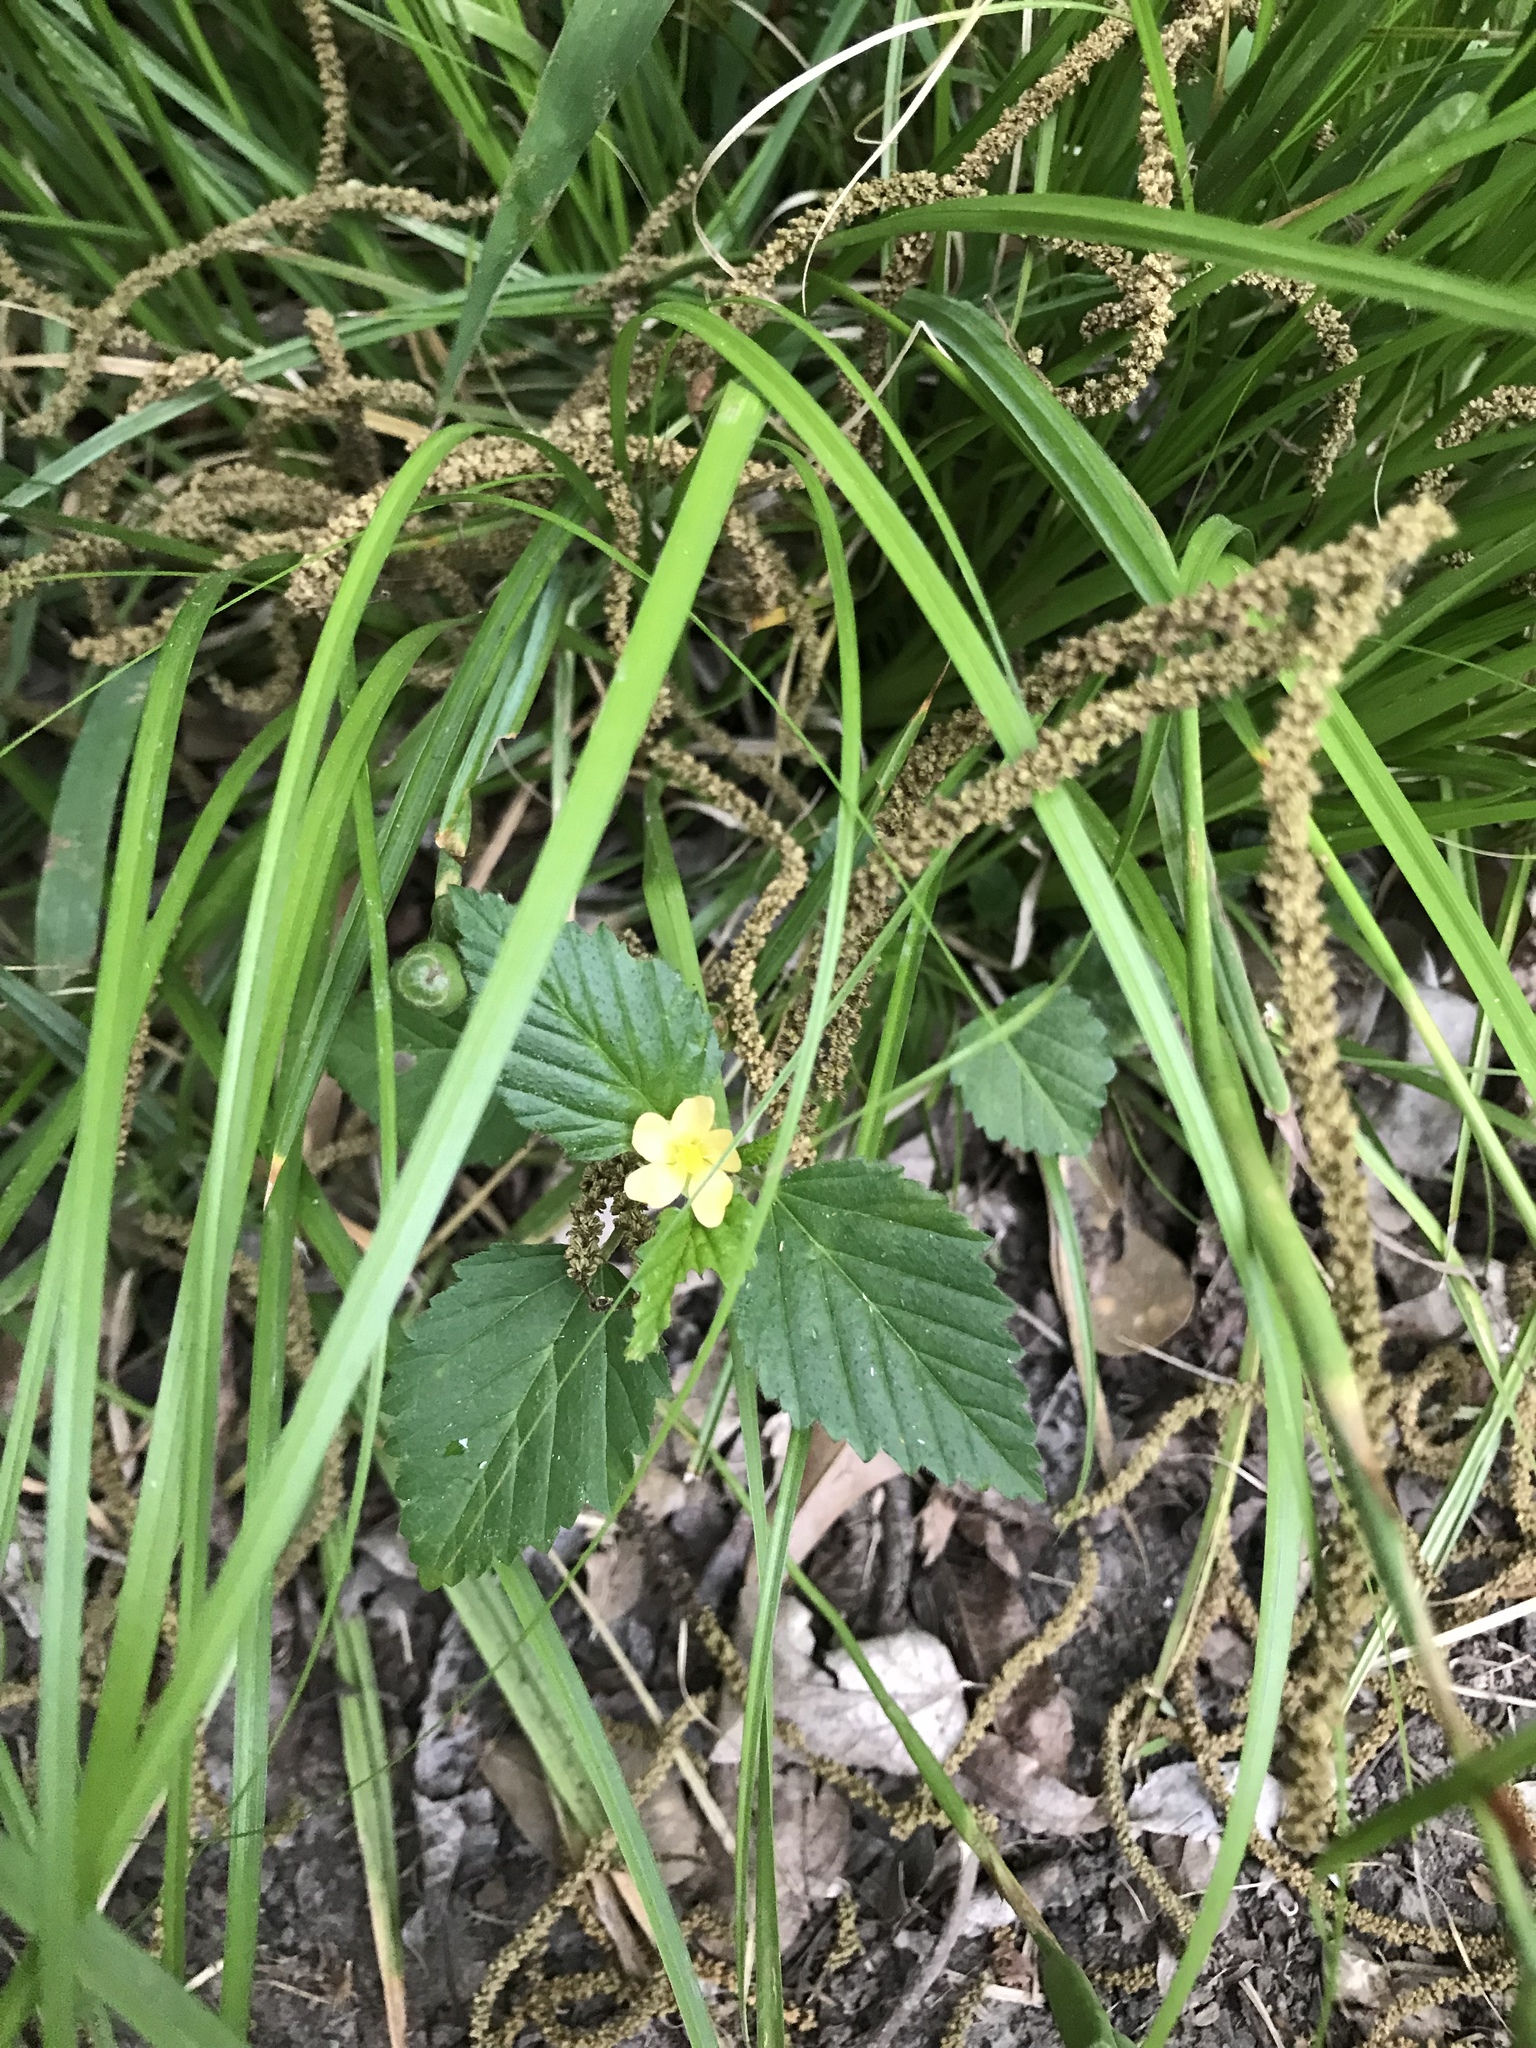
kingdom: Plantae
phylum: Tracheophyta
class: Magnoliopsida
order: Malvales
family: Malvaceae
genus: Malvastrum
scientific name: Malvastrum coromandelianum
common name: Threelobe false mallow
